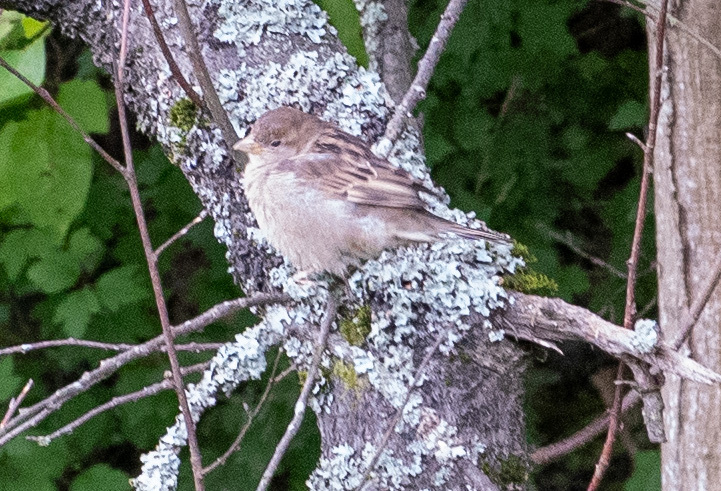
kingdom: Animalia
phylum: Chordata
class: Aves
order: Passeriformes
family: Passeridae
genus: Passer
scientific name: Passer domesticus
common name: House sparrow
